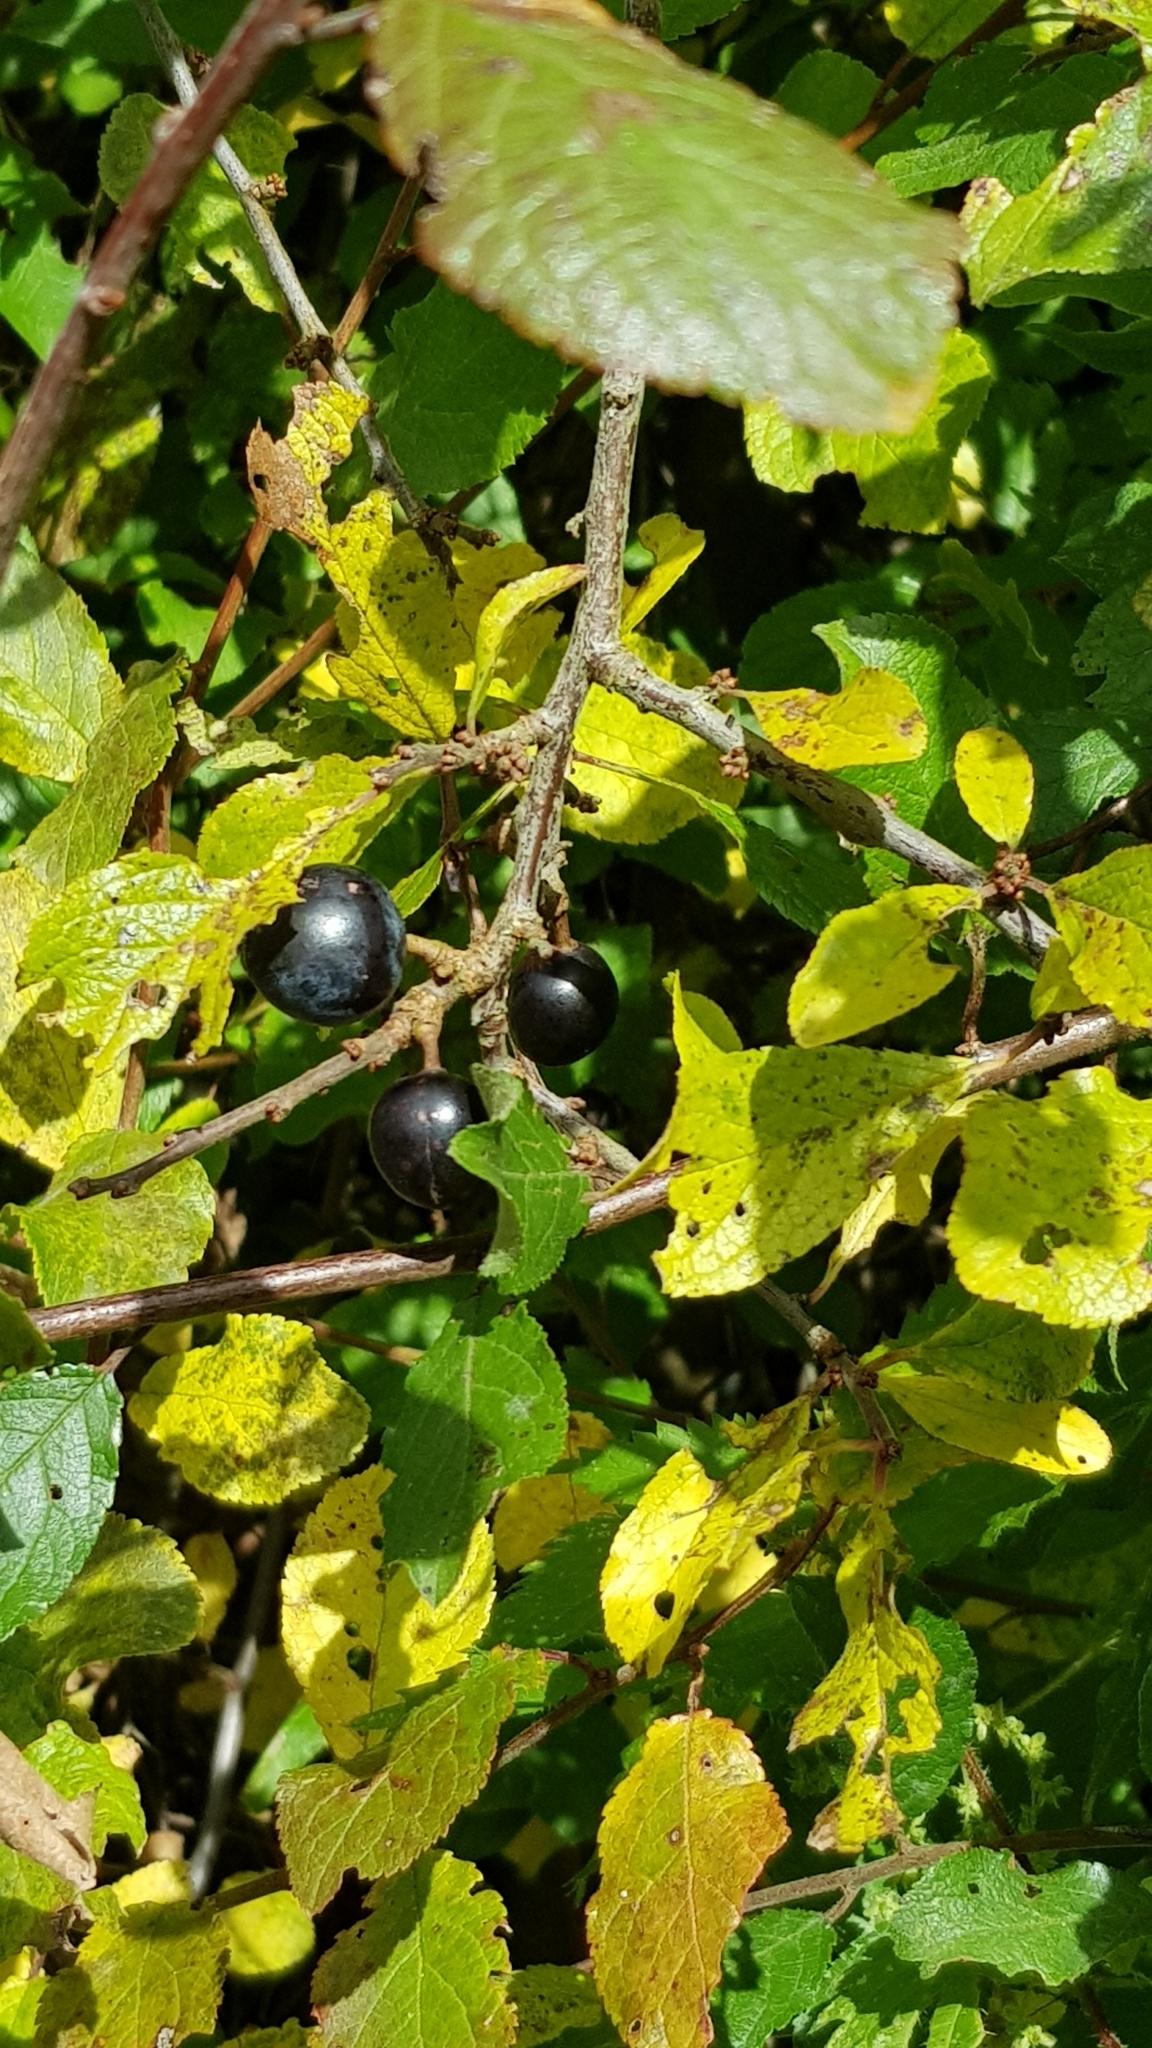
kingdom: Plantae
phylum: Tracheophyta
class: Magnoliopsida
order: Rosales
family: Rosaceae
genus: Prunus
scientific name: Prunus spinosa
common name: Blackthorn
